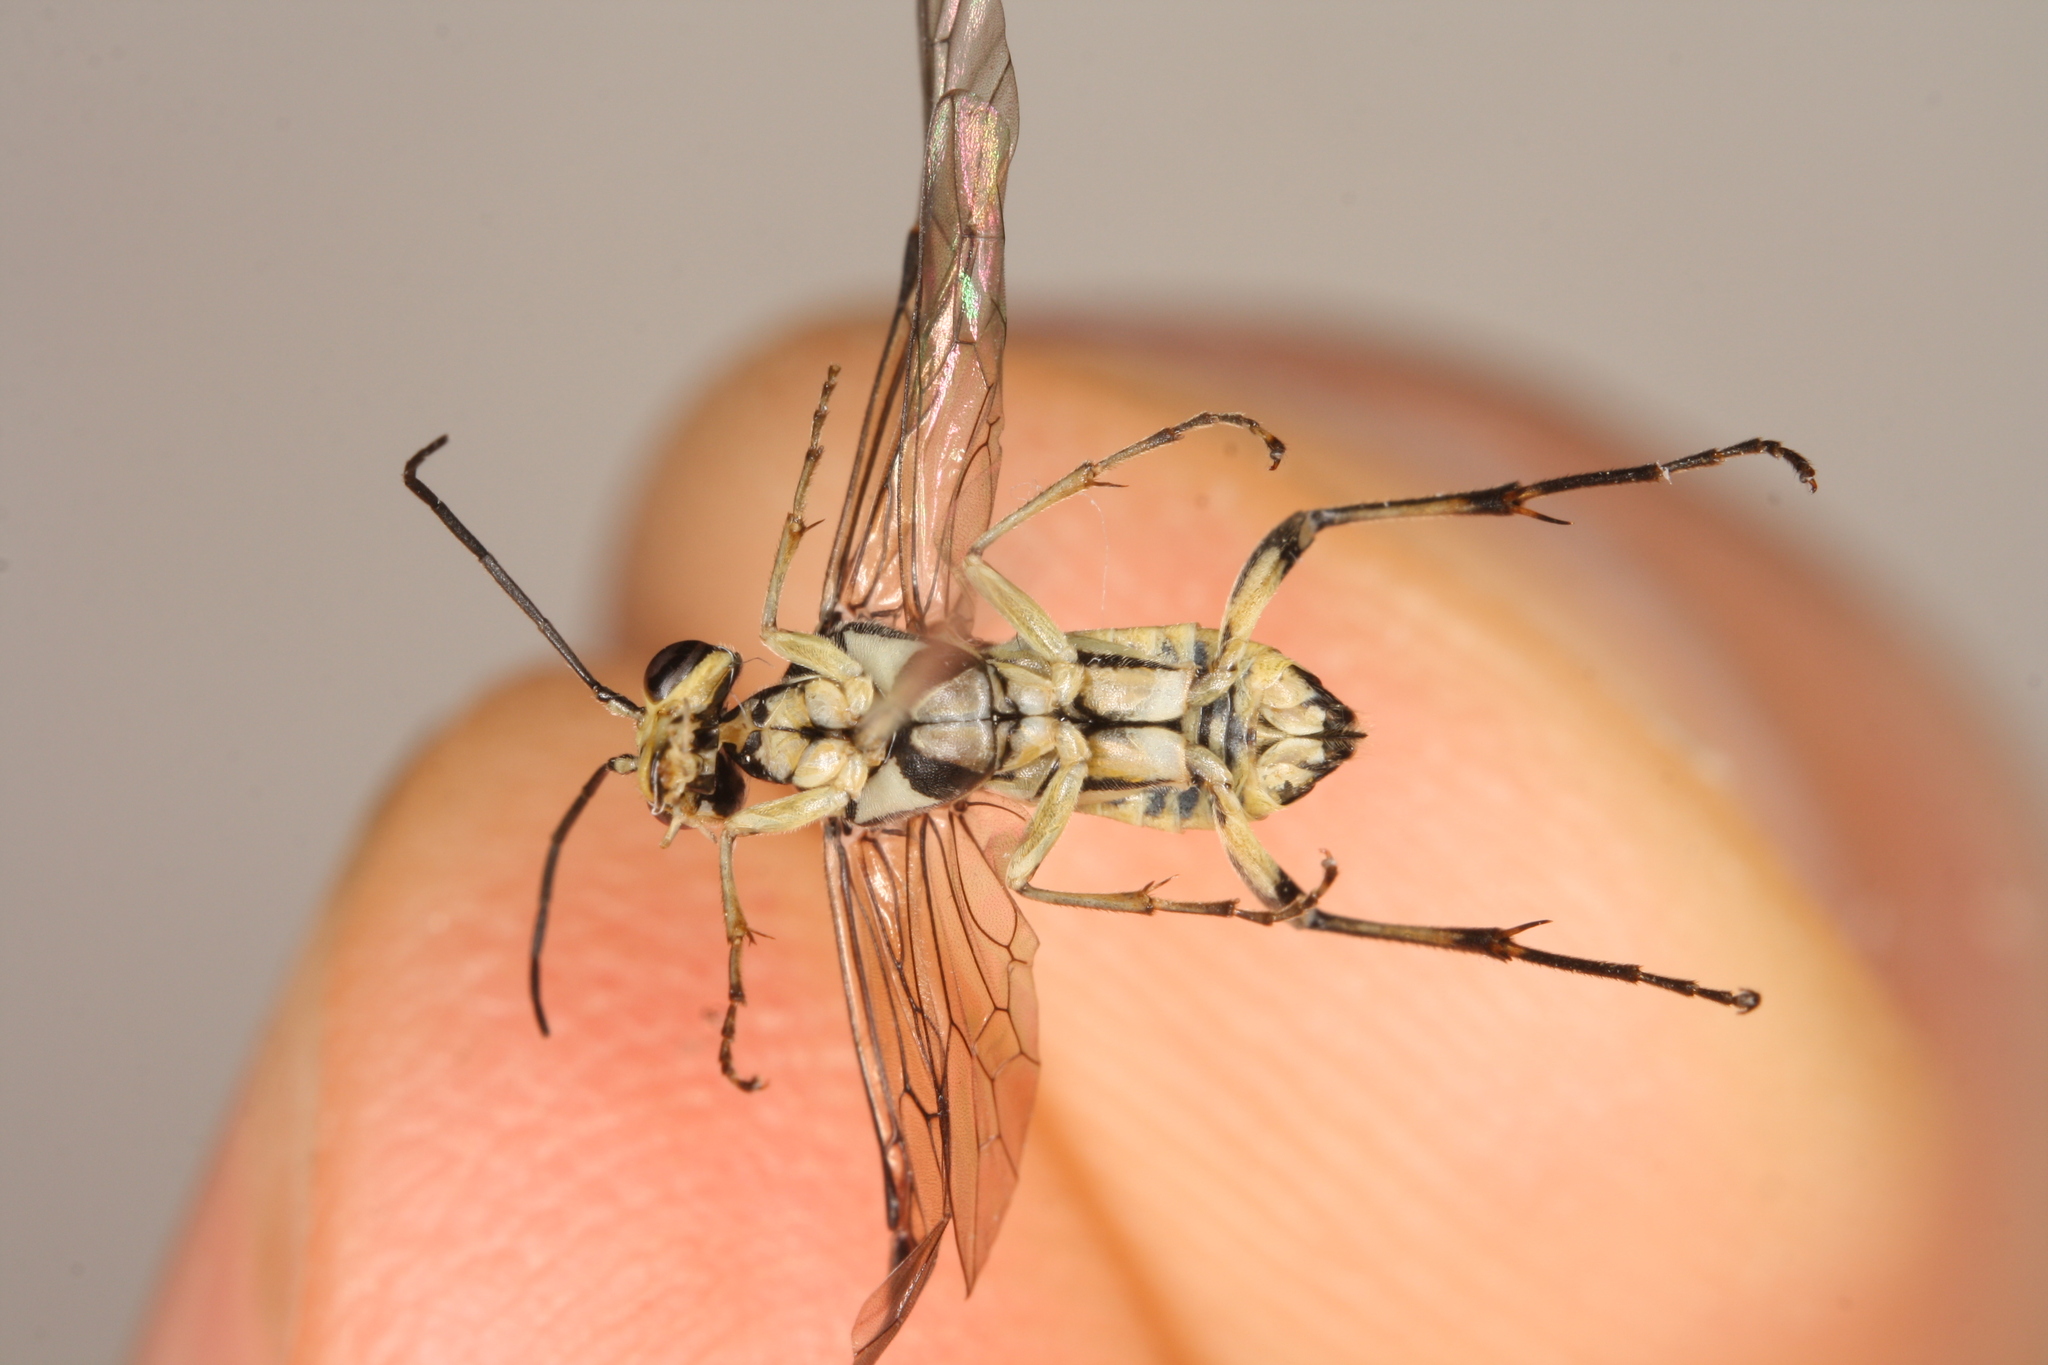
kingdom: Animalia
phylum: Arthropoda
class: Insecta
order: Hymenoptera
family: Tenthredinidae
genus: Pachyprotasis
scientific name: Pachyprotasis rapae
